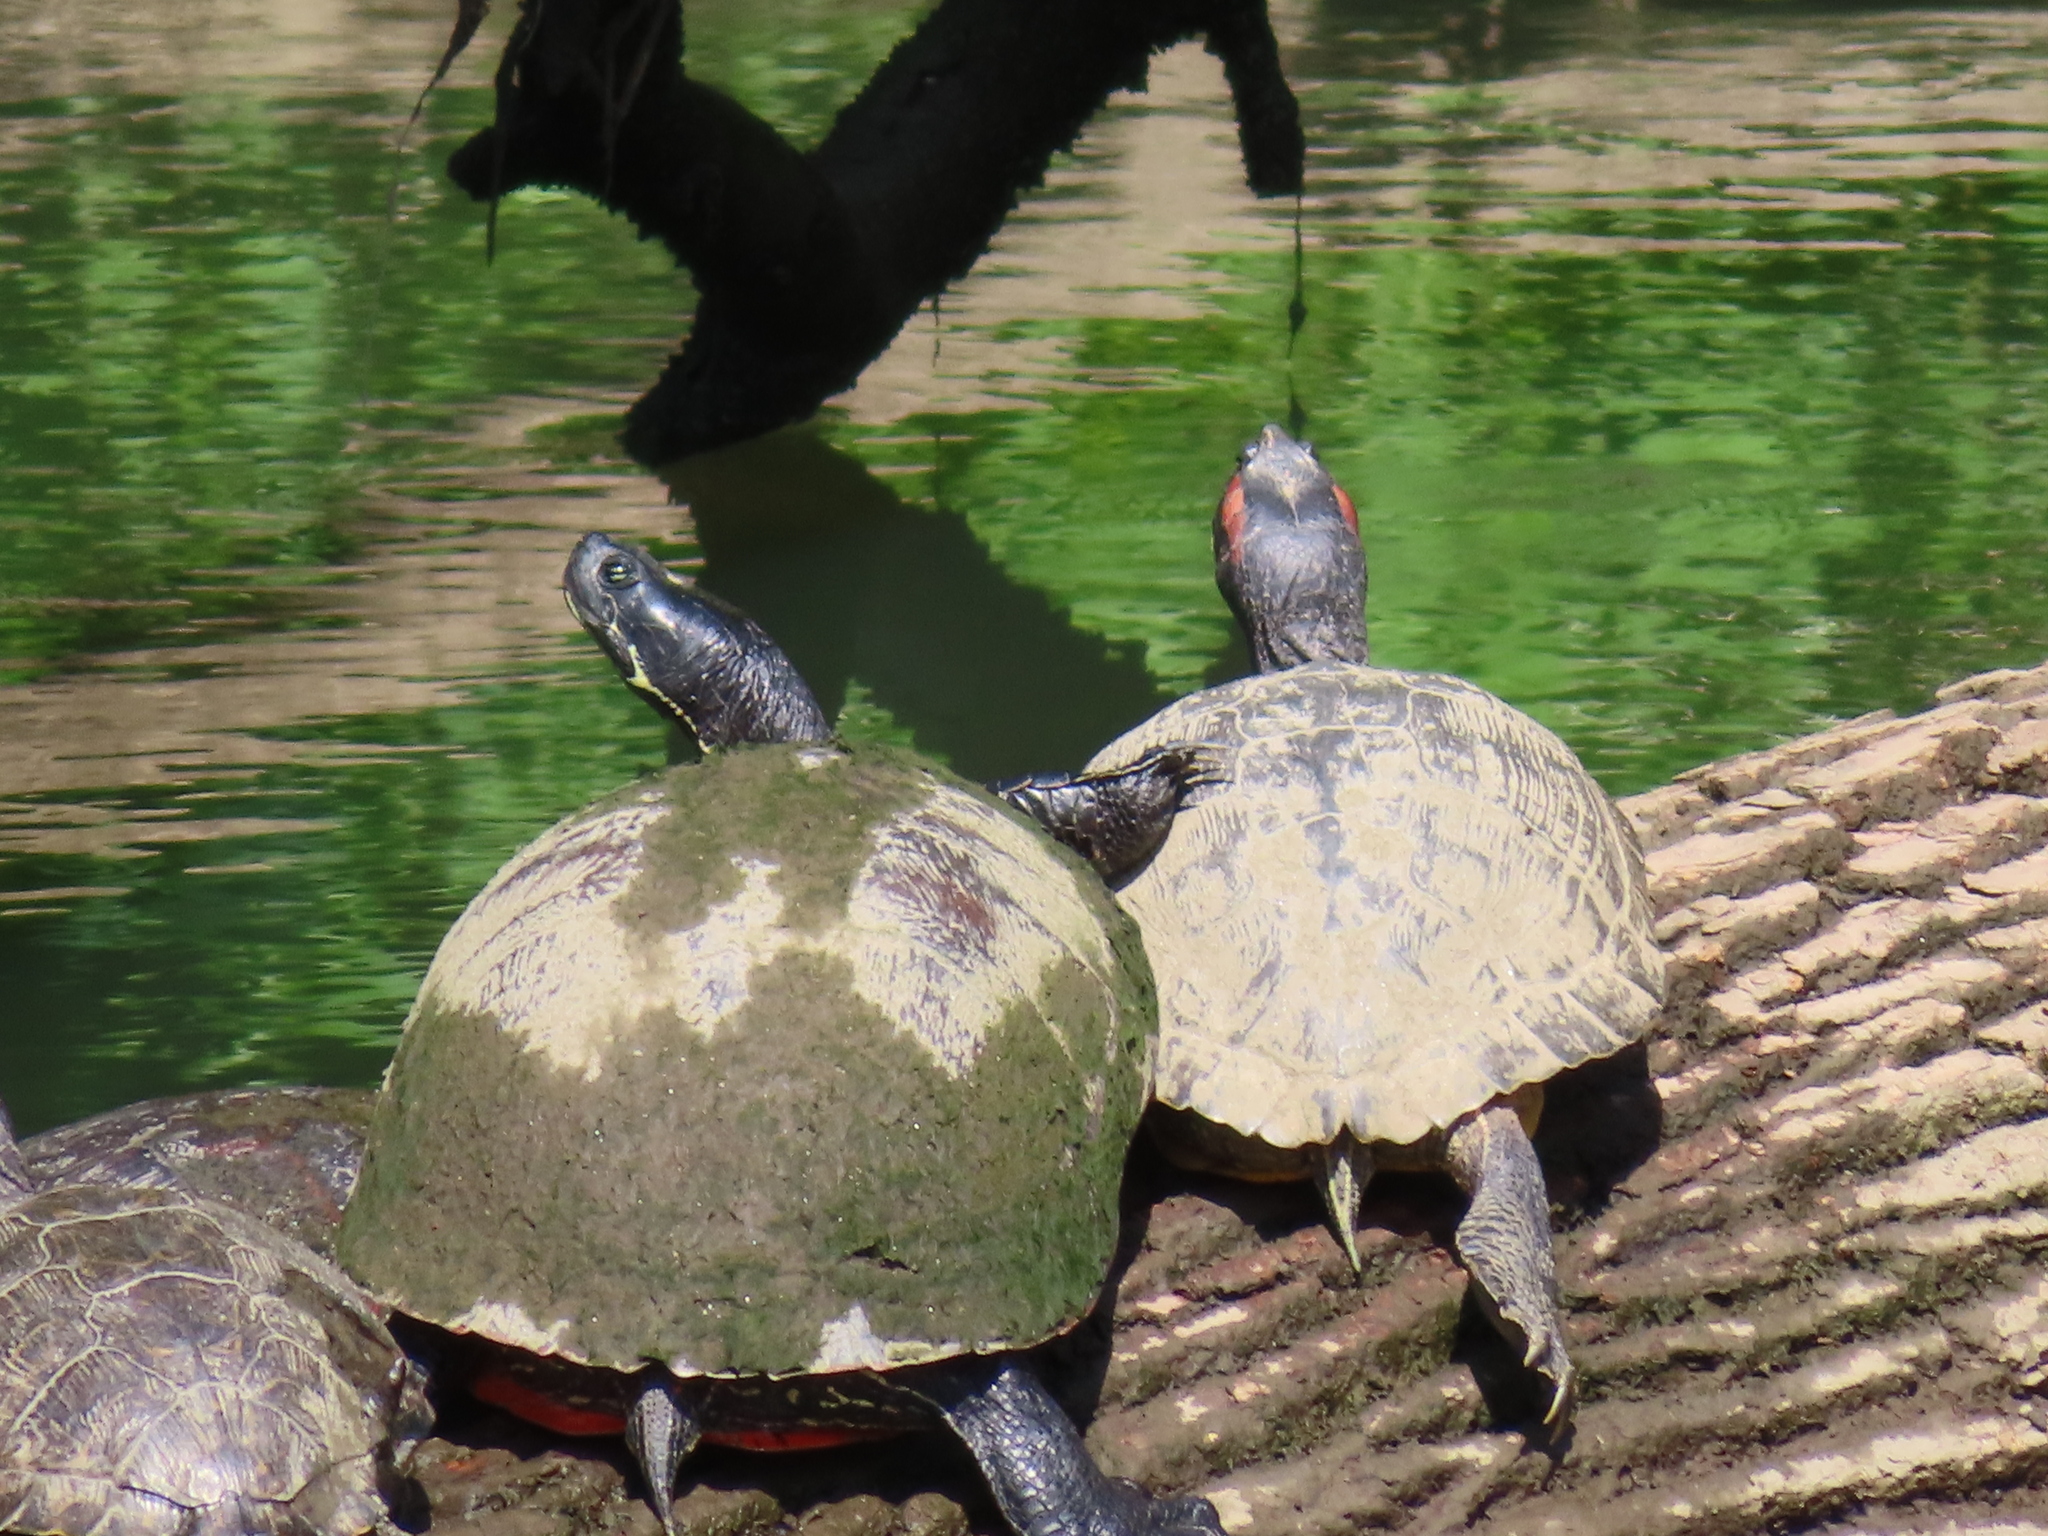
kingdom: Animalia
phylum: Chordata
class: Testudines
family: Emydidae
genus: Pseudemys
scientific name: Pseudemys rubriventris
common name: American red-bellied turtle
